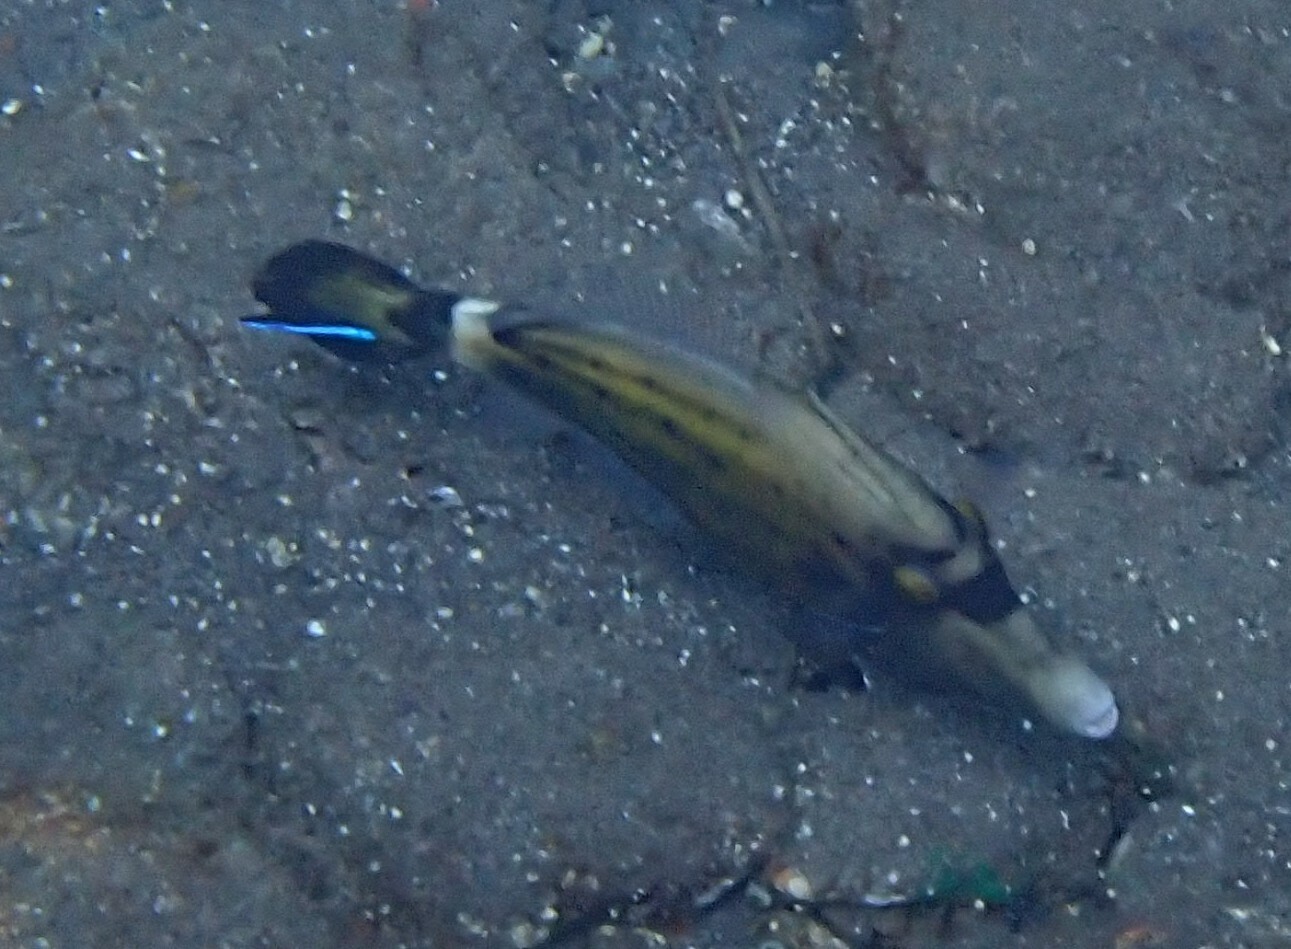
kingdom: Animalia
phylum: Chordata
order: Tetraodontiformes
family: Monacanthidae
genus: Cantherhines
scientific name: Cantherhines fronticinctus
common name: Spectacled filefish
